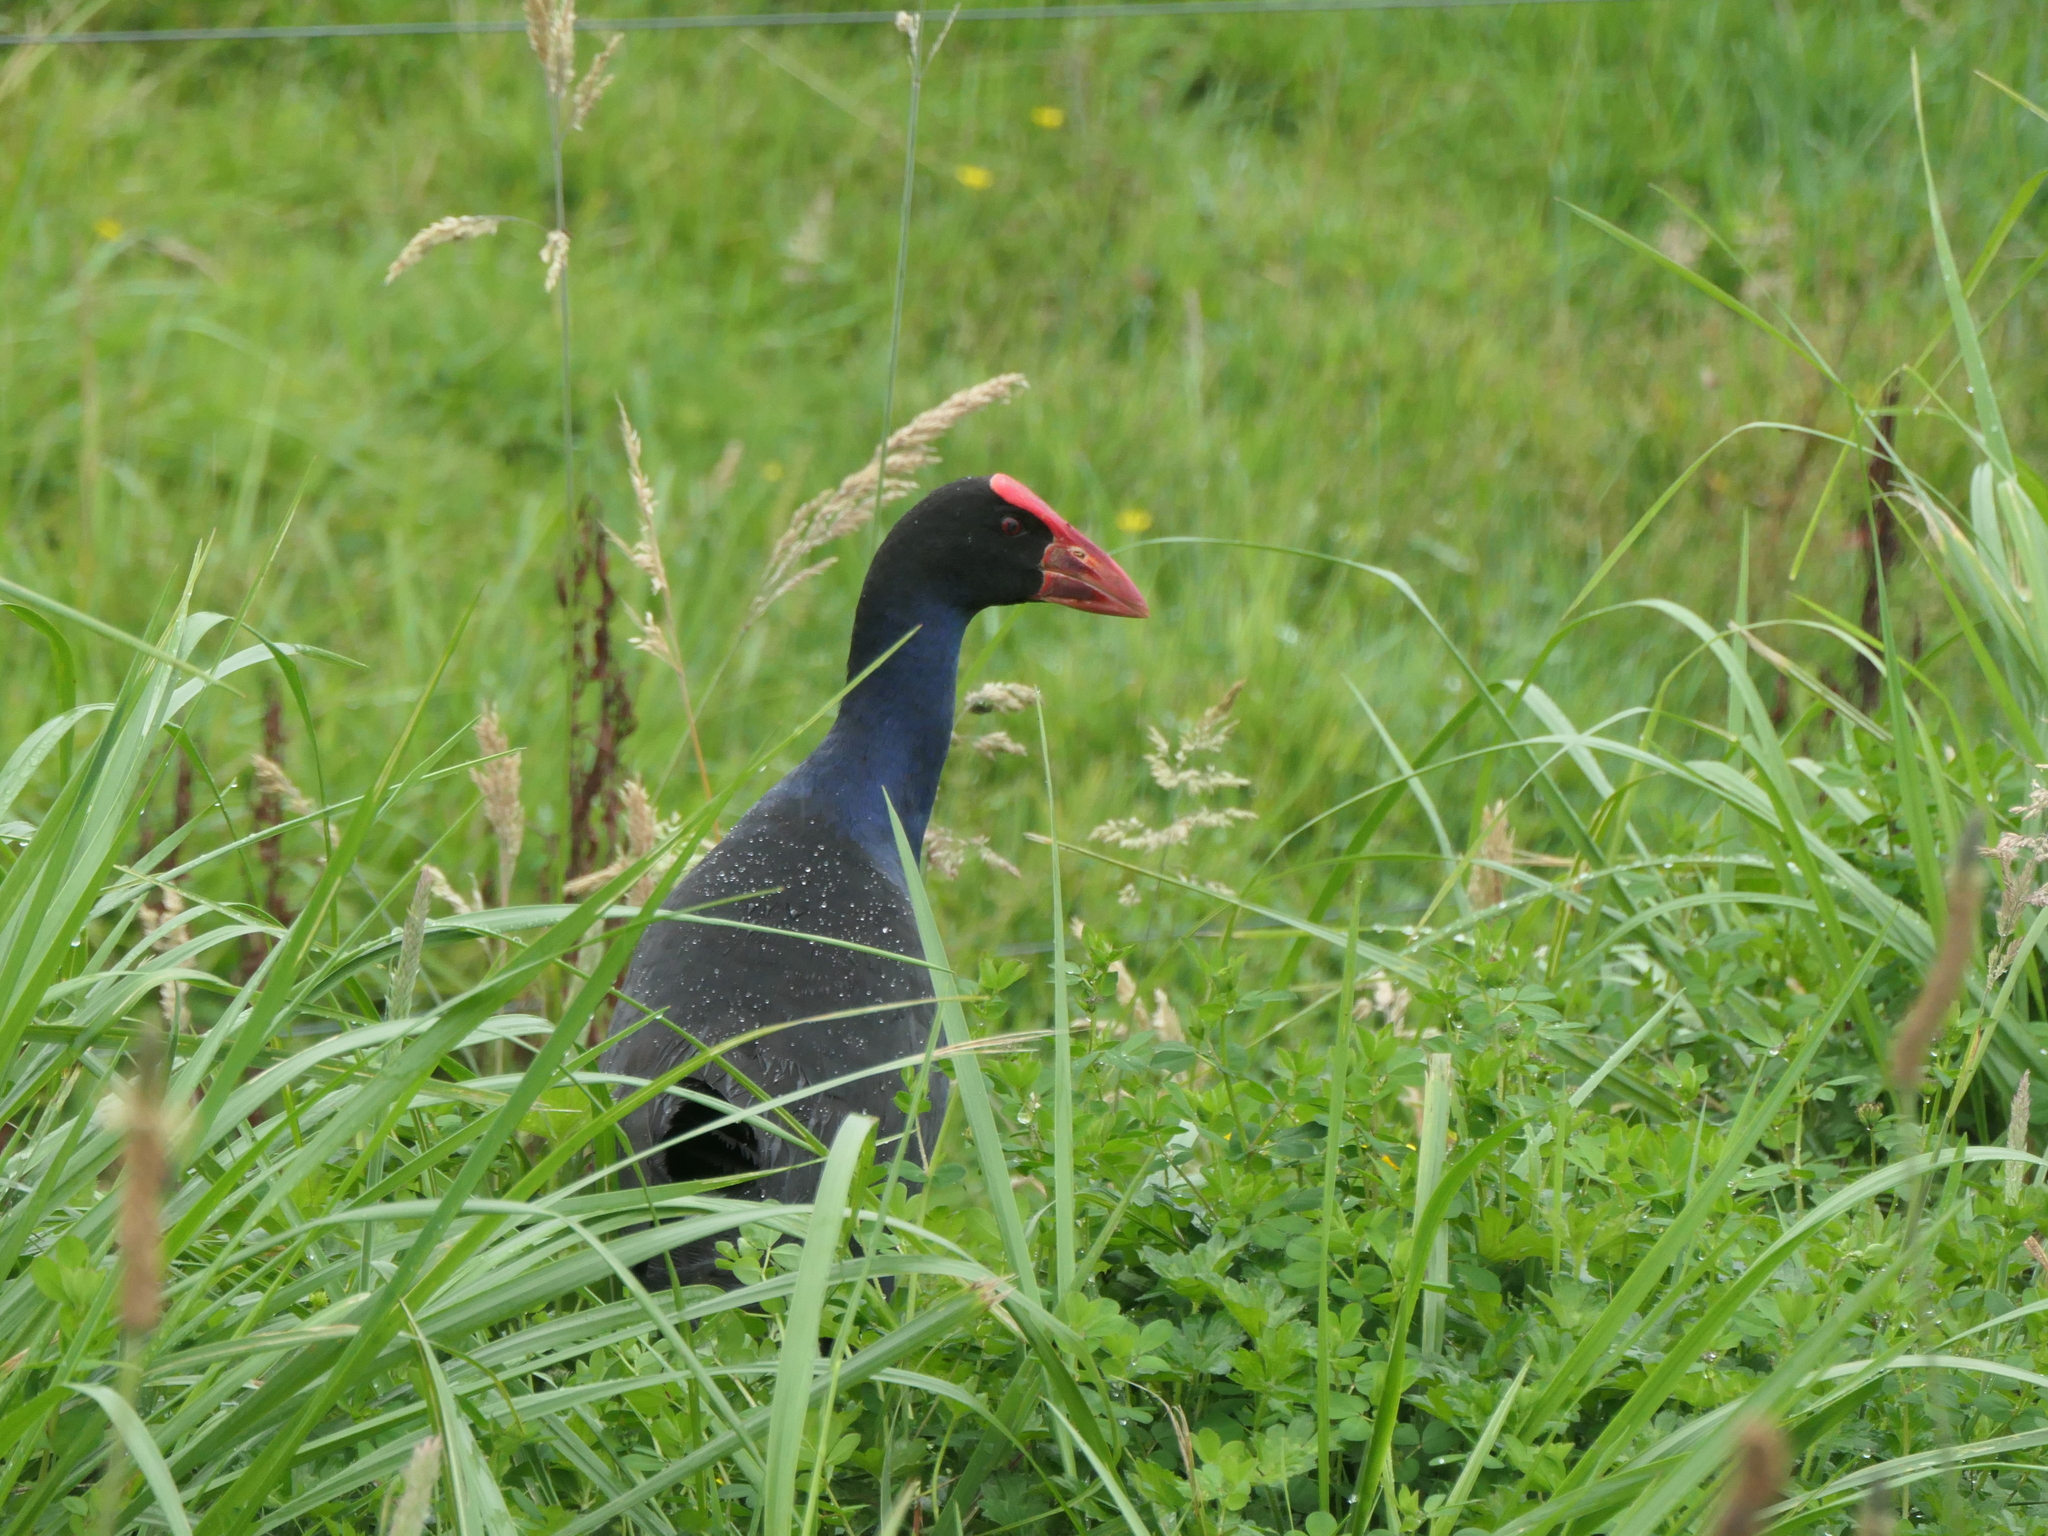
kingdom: Animalia
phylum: Chordata
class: Aves
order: Gruiformes
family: Rallidae
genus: Porphyrio
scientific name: Porphyrio melanotus
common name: Australasian swamphen
